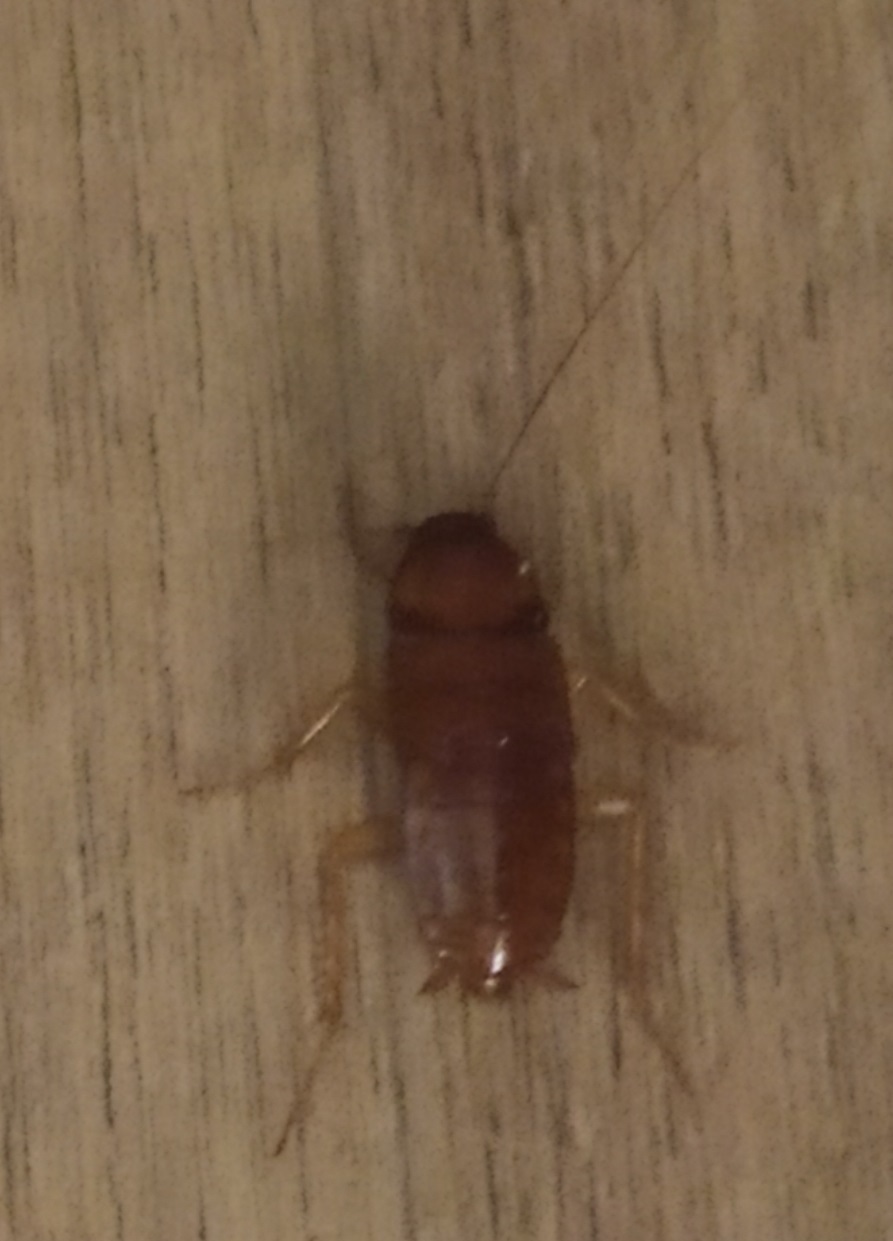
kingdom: Animalia
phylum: Arthropoda
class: Insecta
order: Blattodea
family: Blattidae
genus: Periplaneta
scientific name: Periplaneta americana
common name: American cockroach
